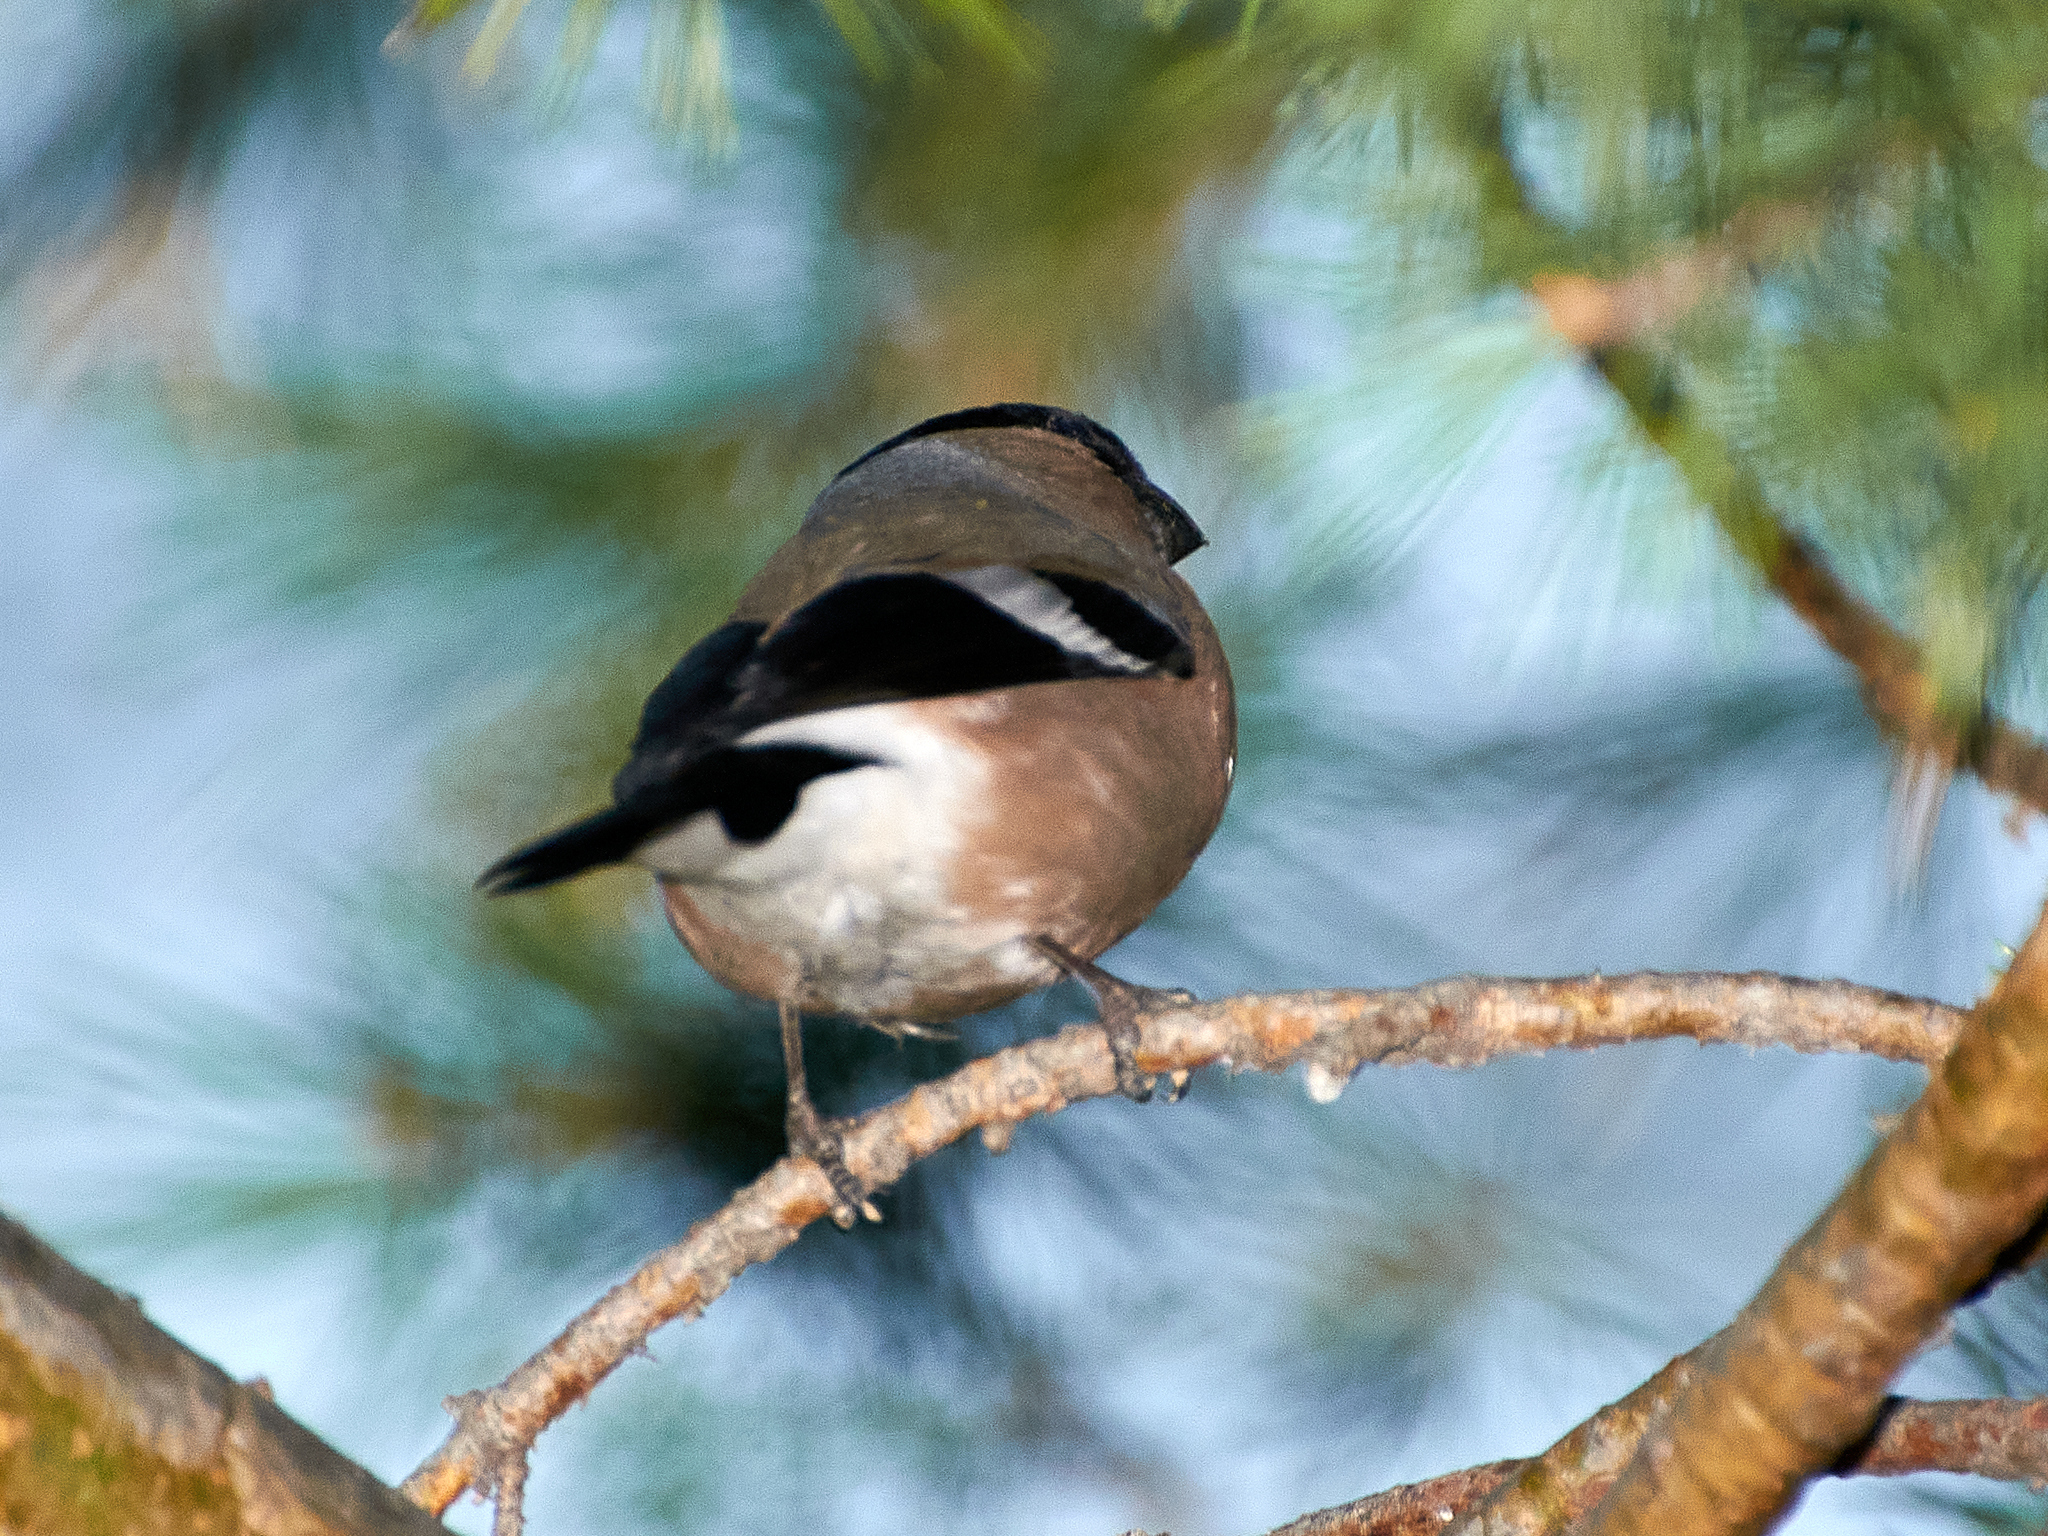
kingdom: Animalia
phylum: Chordata
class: Aves
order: Passeriformes
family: Fringillidae
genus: Pyrrhula
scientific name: Pyrrhula pyrrhula
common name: Eurasian bullfinch
